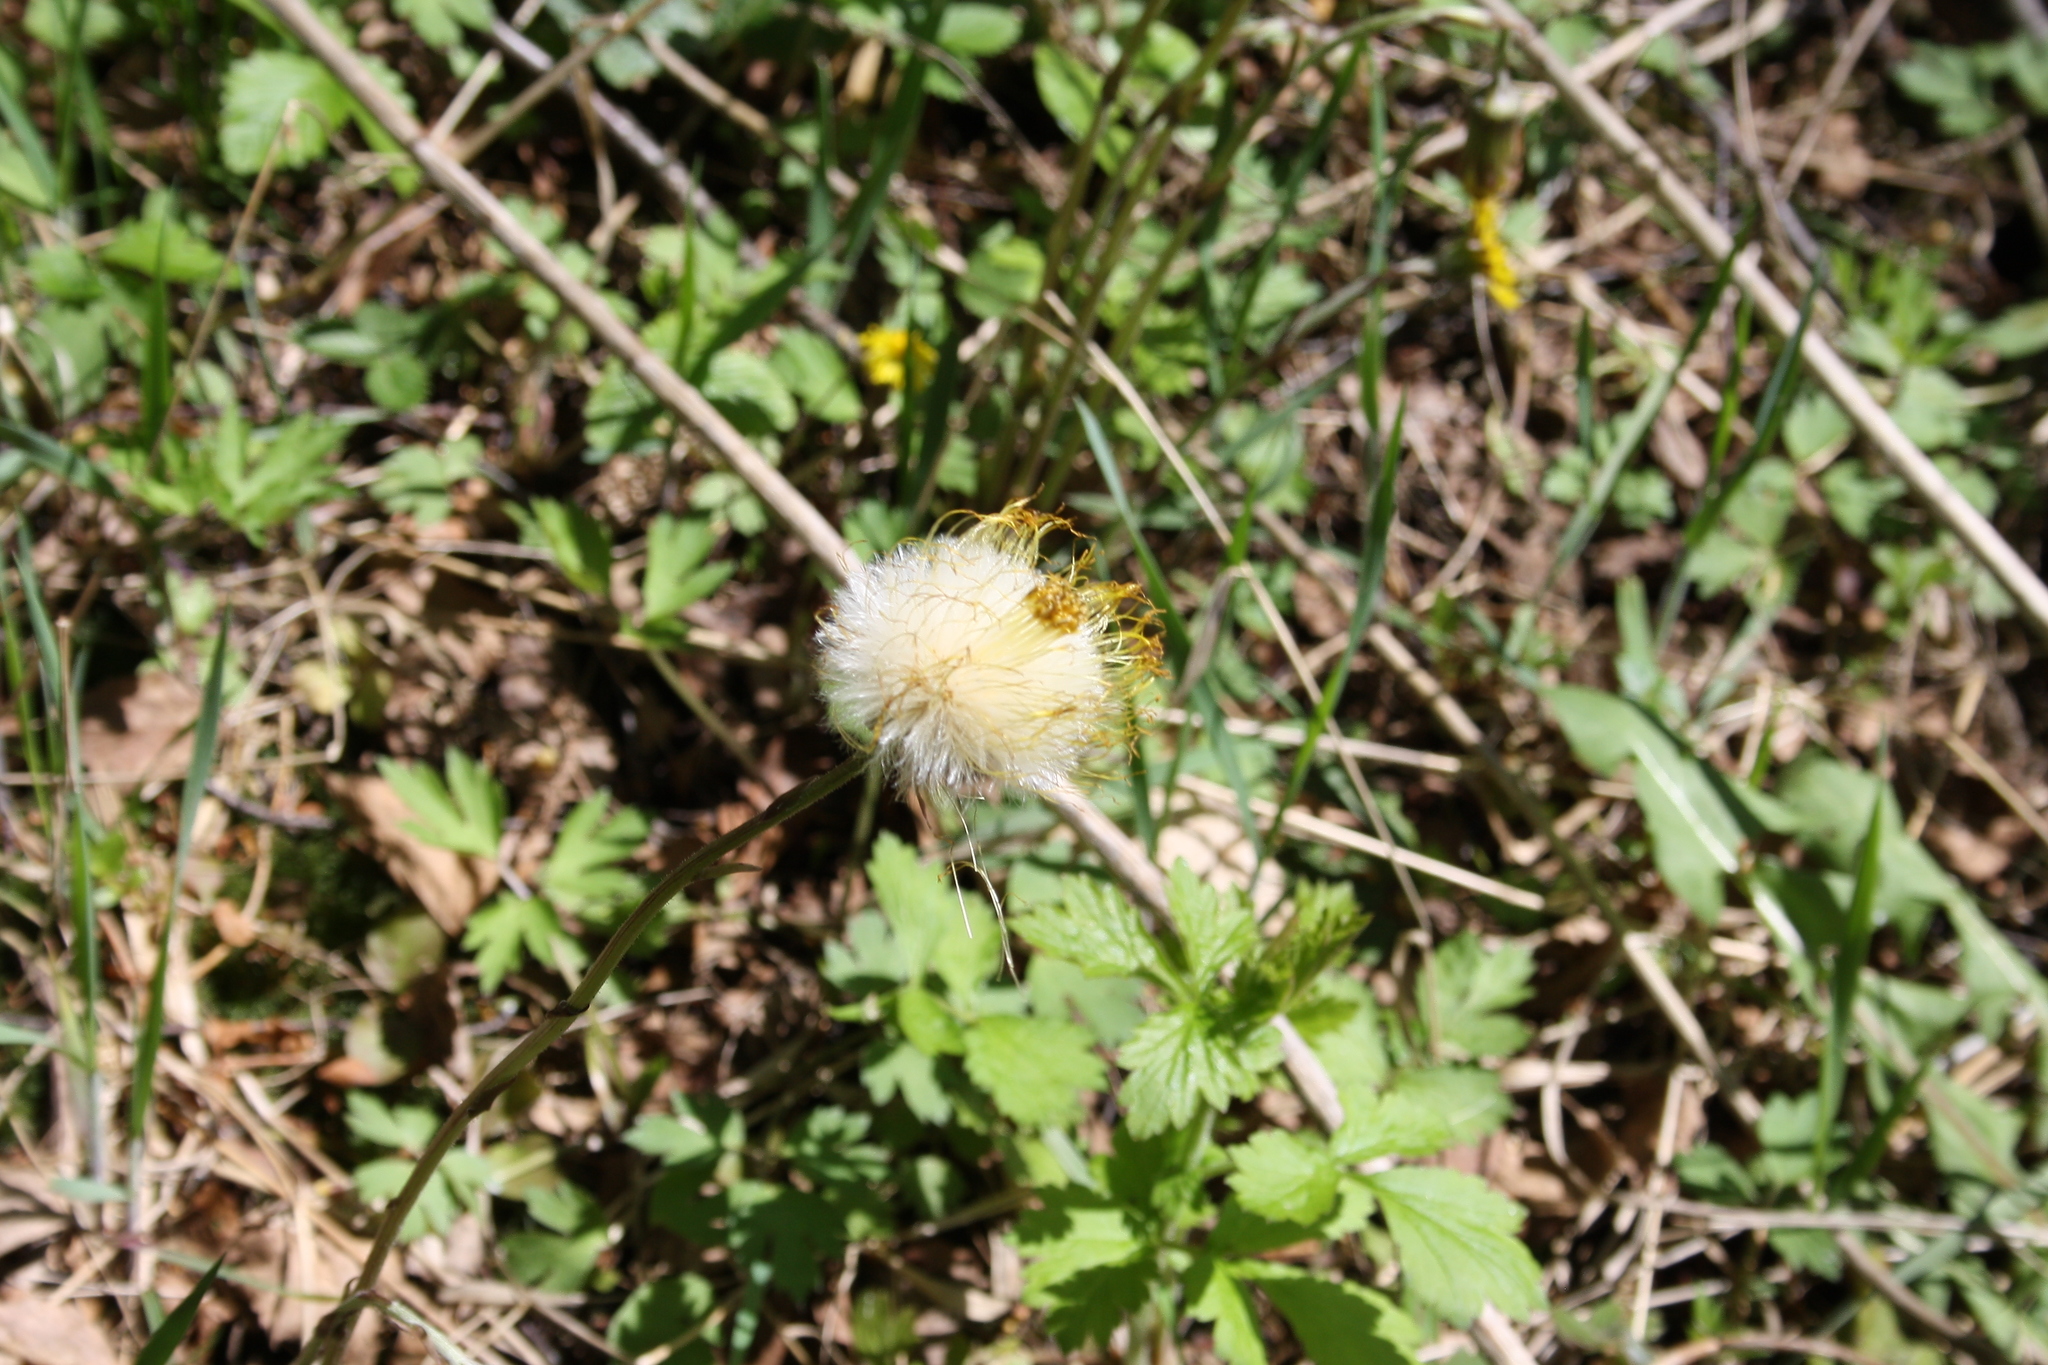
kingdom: Plantae
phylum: Tracheophyta
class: Magnoliopsida
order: Asterales
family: Asteraceae
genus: Tussilago
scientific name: Tussilago farfara
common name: Coltsfoot
